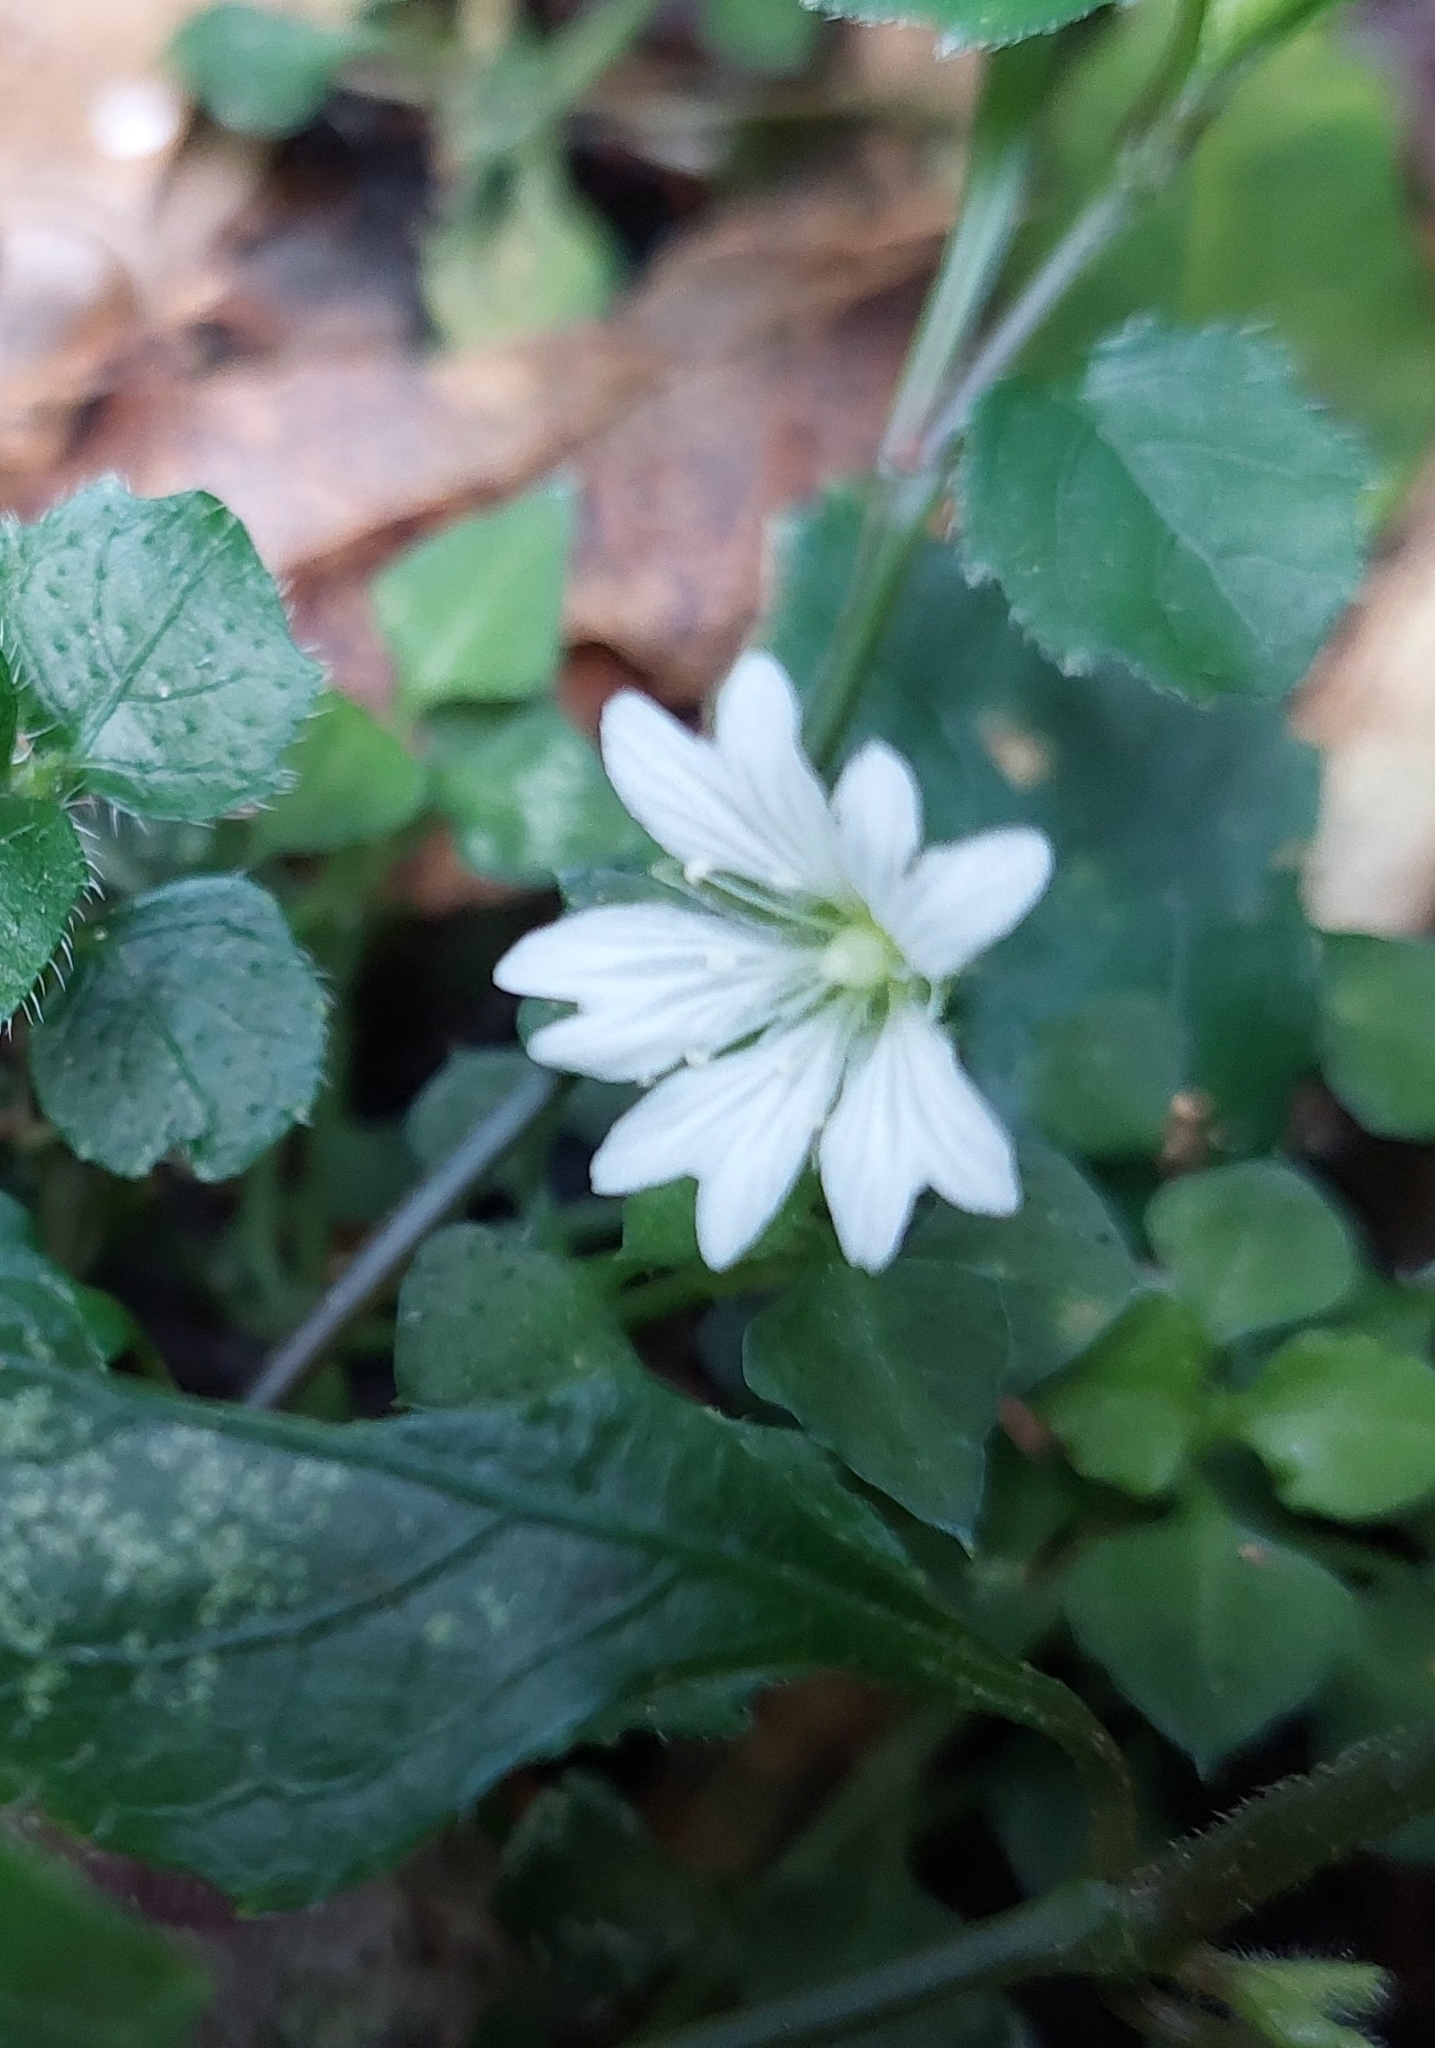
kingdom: Plantae
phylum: Tracheophyta
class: Magnoliopsida
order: Caryophyllales
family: Caryophyllaceae
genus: Nubelaria
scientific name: Nubelaria arisanensis
